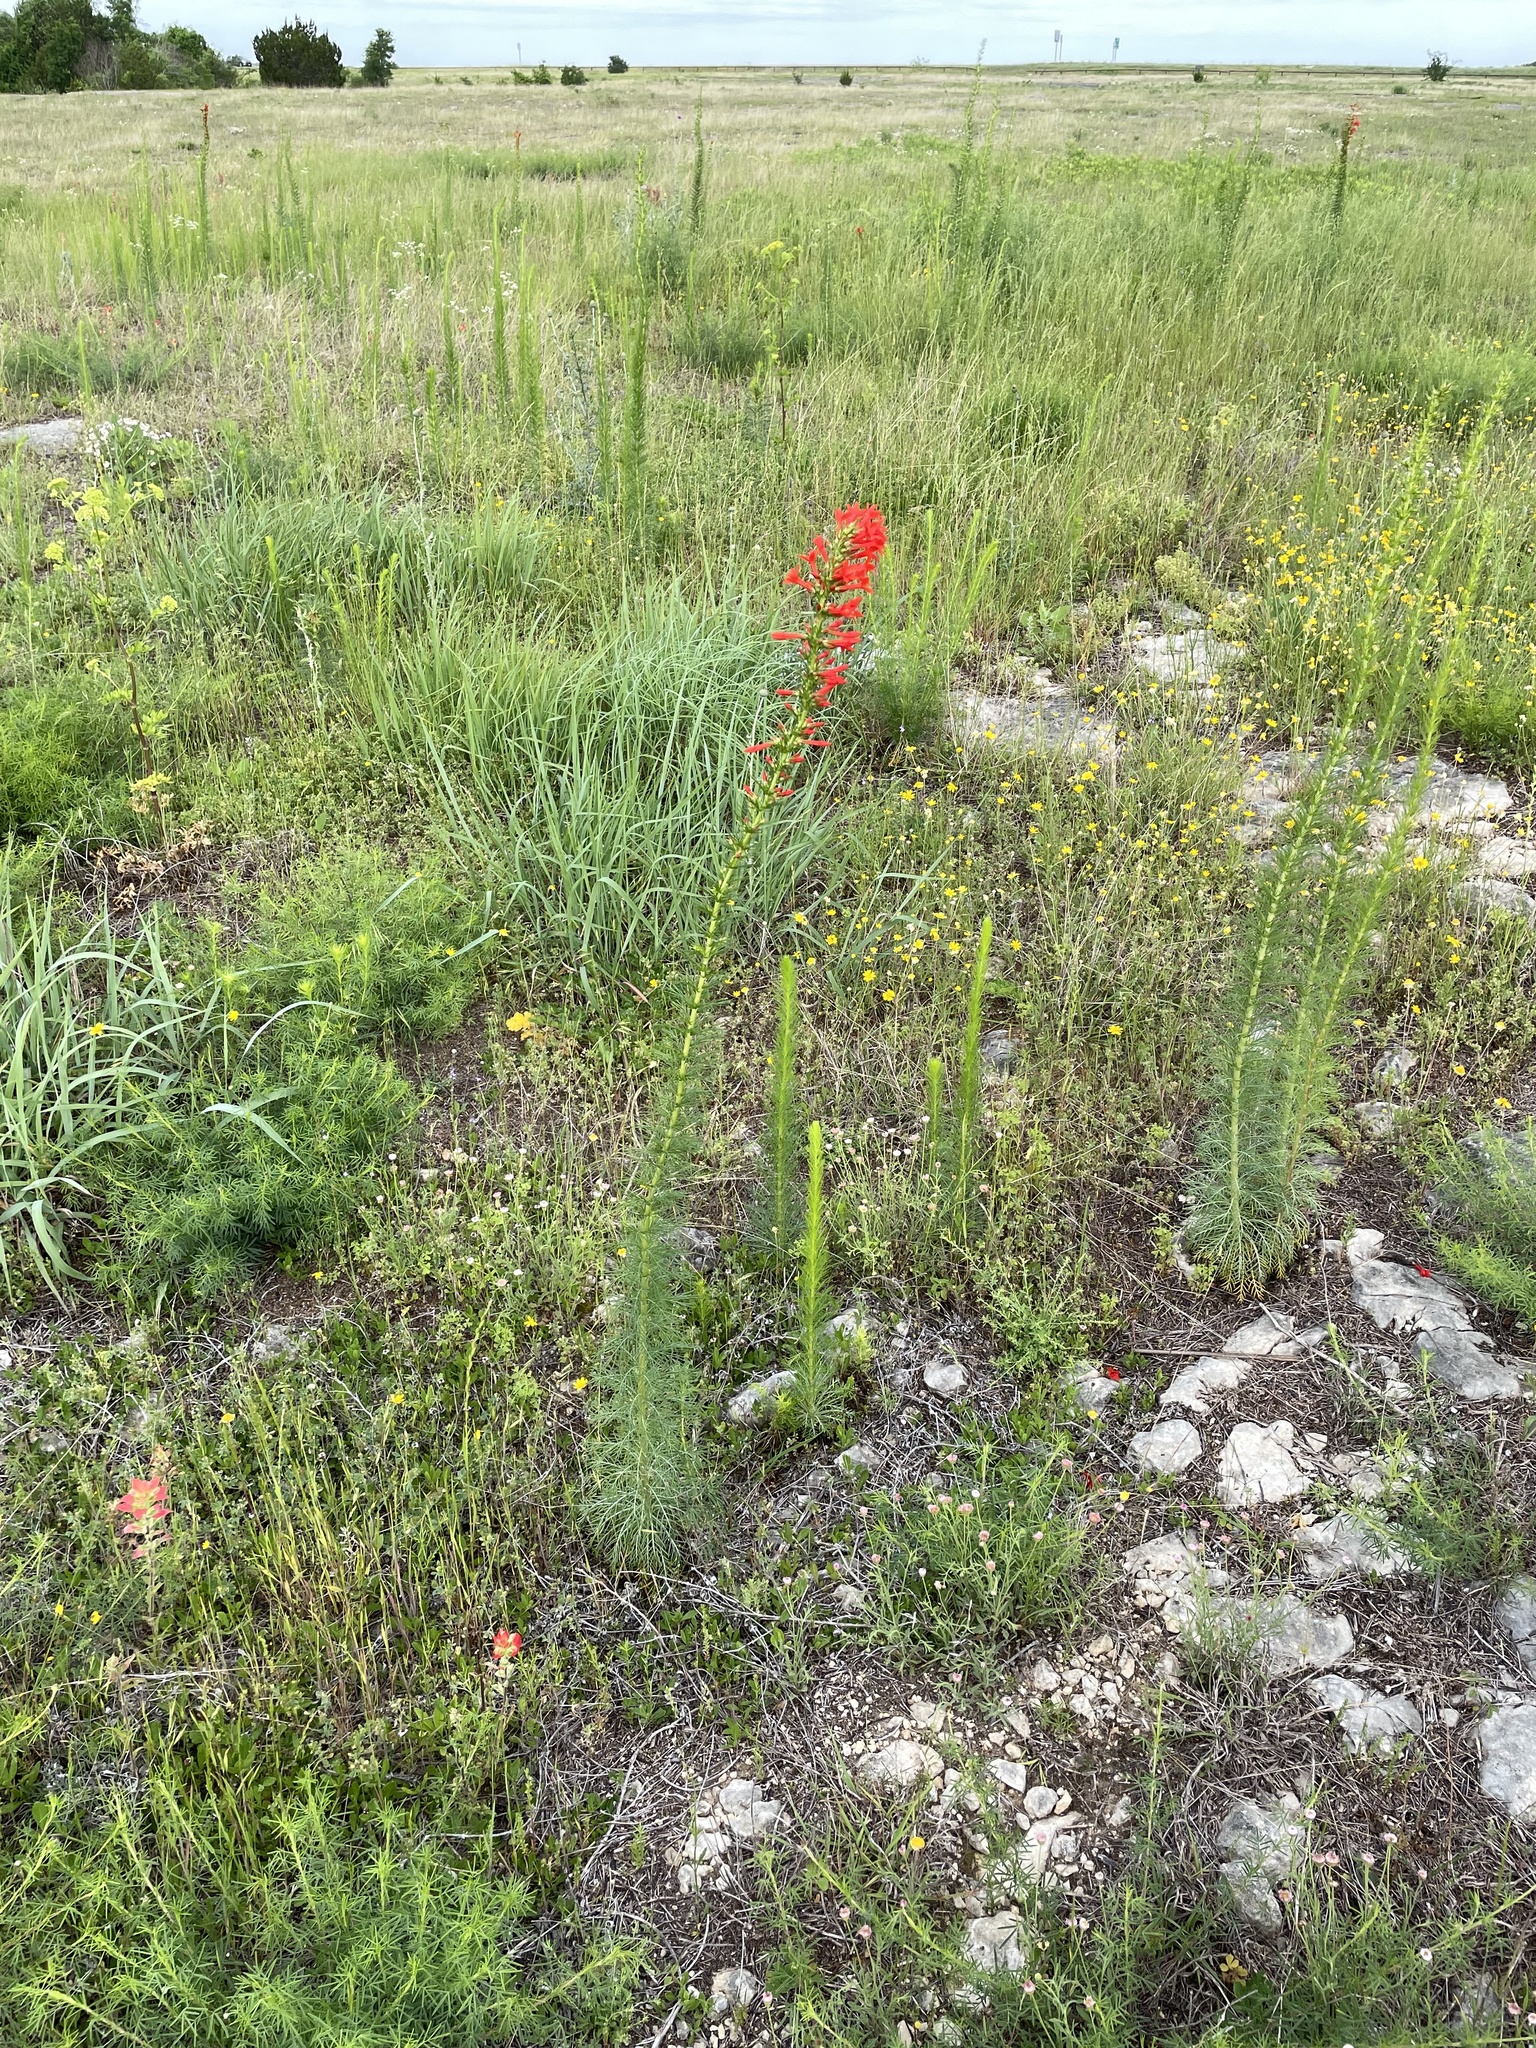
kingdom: Plantae
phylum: Tracheophyta
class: Magnoliopsida
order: Ericales
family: Polemoniaceae
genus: Ipomopsis
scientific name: Ipomopsis rubra
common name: Skyrocket
